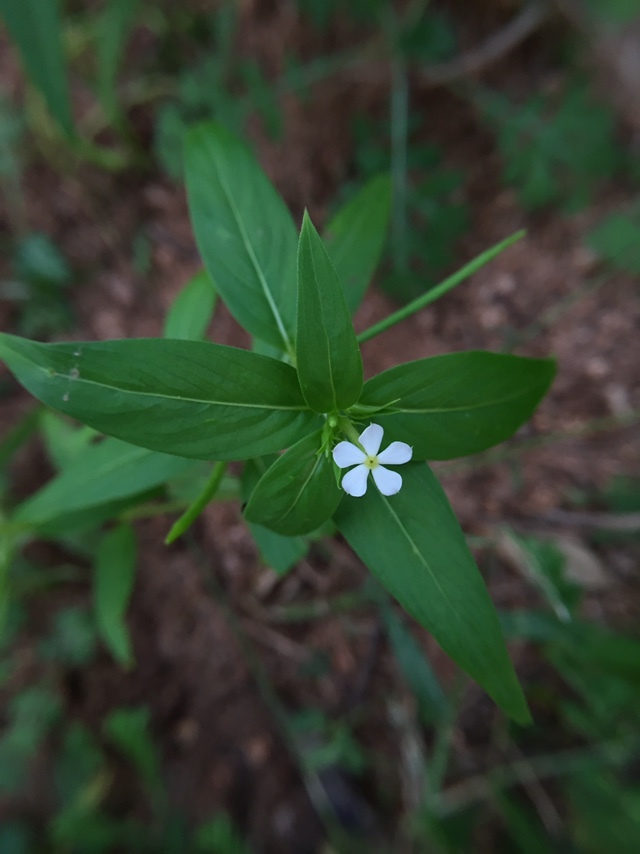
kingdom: Plantae
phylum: Tracheophyta
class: Magnoliopsida
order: Gentianales
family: Apocynaceae
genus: Catharanthus
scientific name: Catharanthus pusillus
